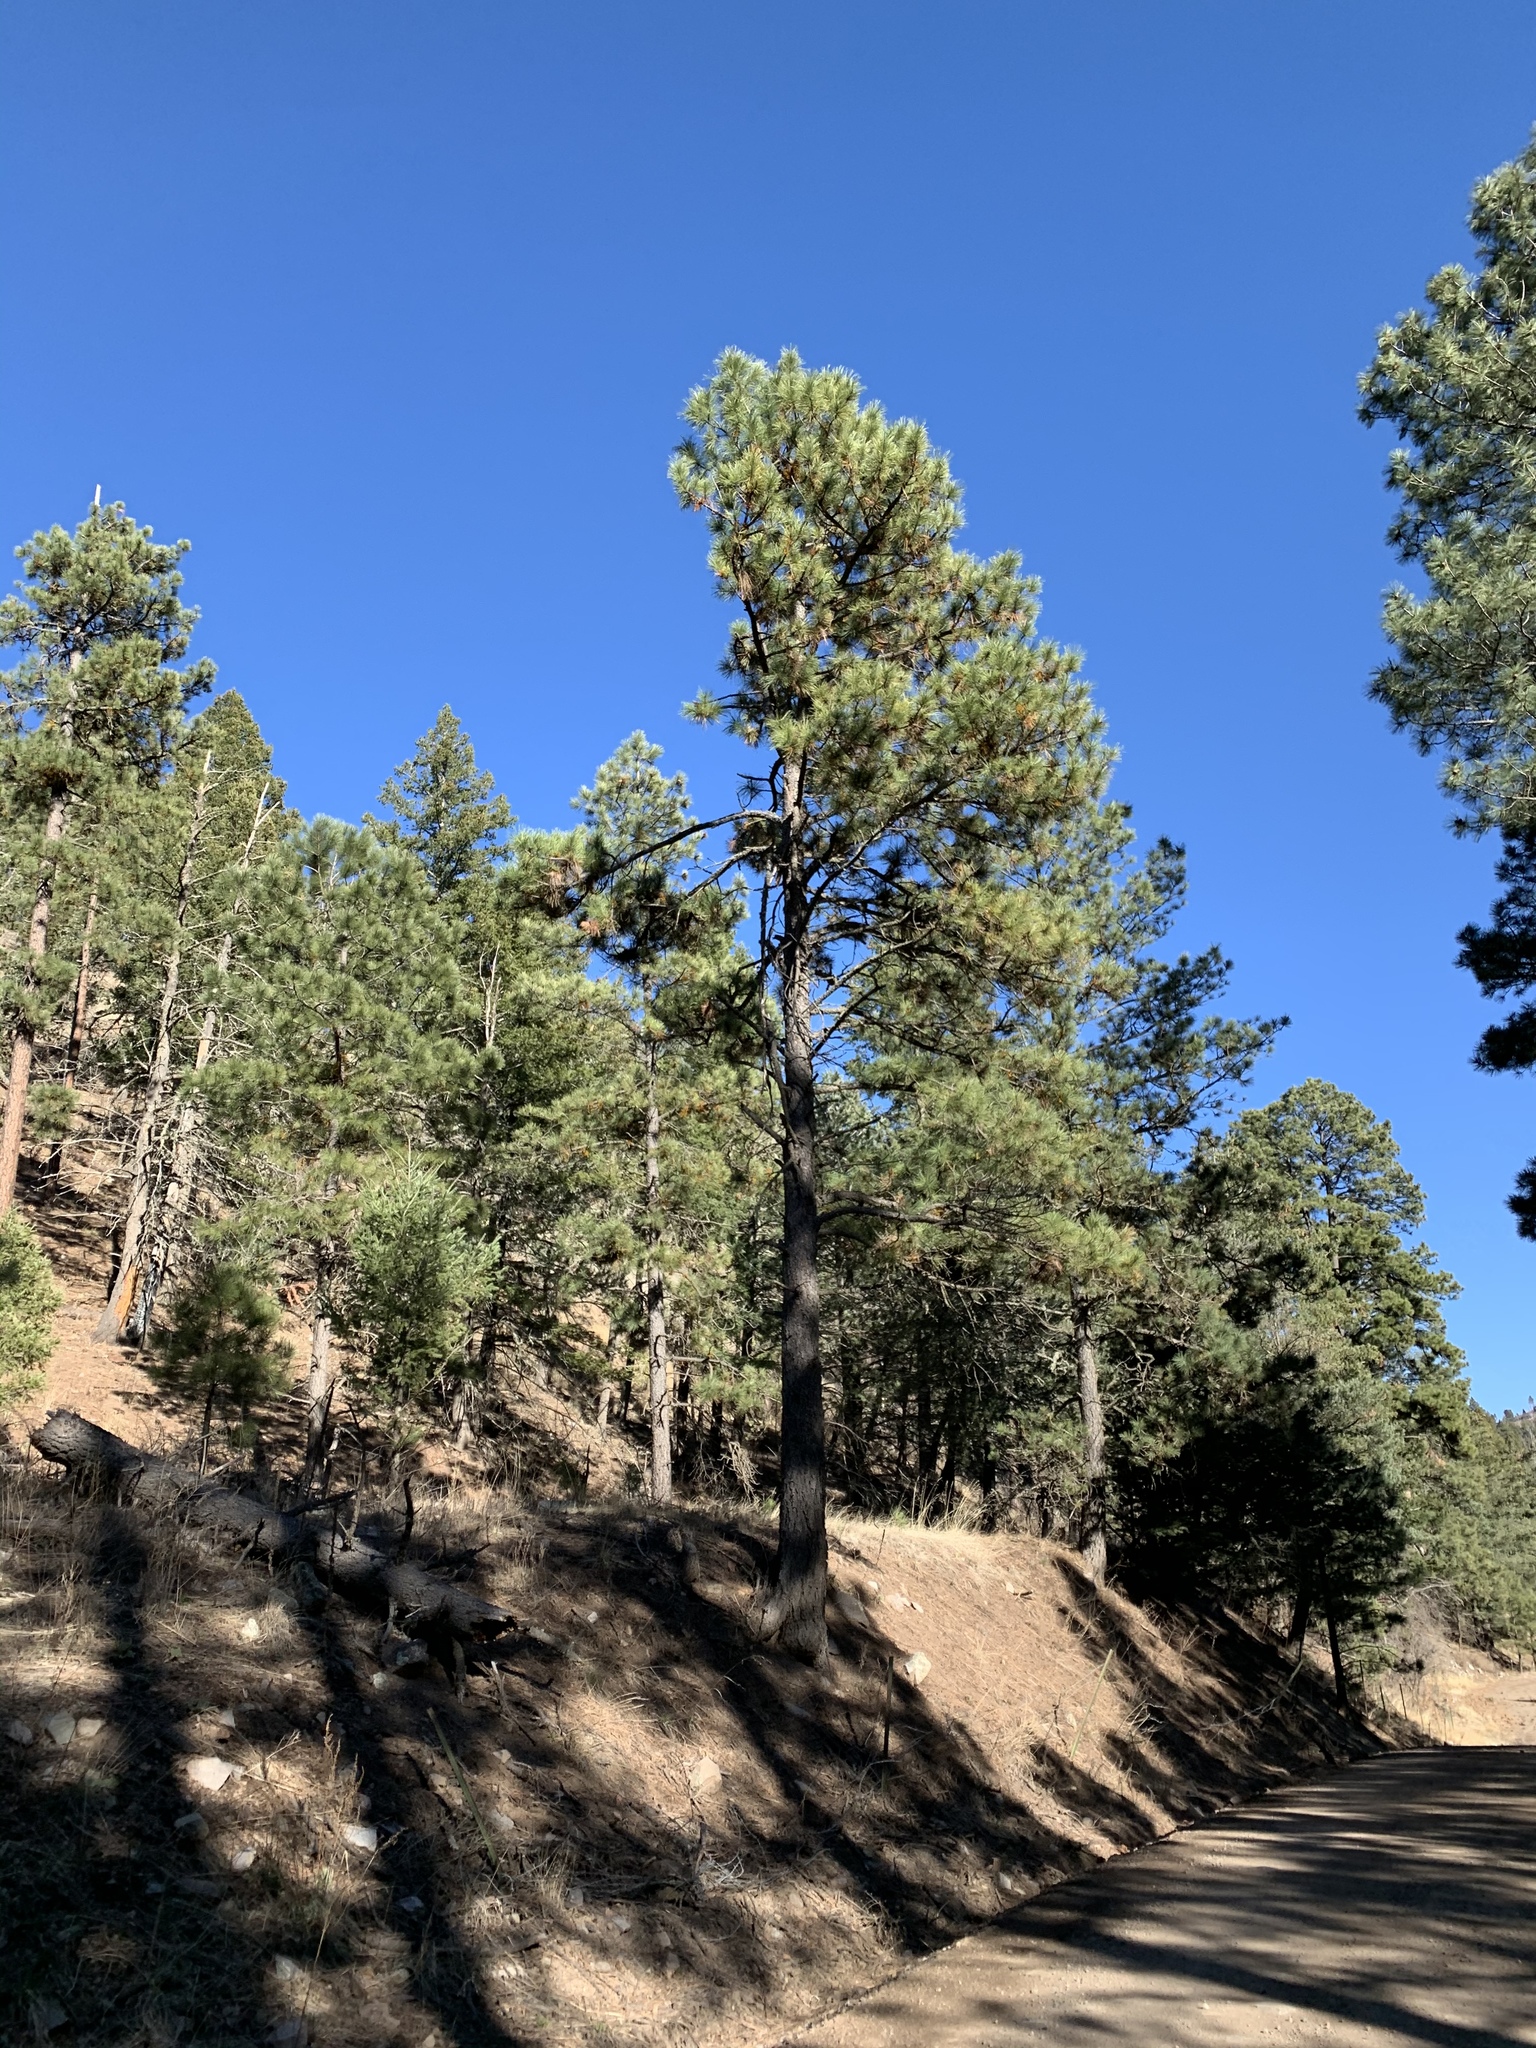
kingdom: Plantae
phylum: Tracheophyta
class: Pinopsida
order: Pinales
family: Pinaceae
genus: Pinus
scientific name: Pinus ponderosa
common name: Western yellow-pine
